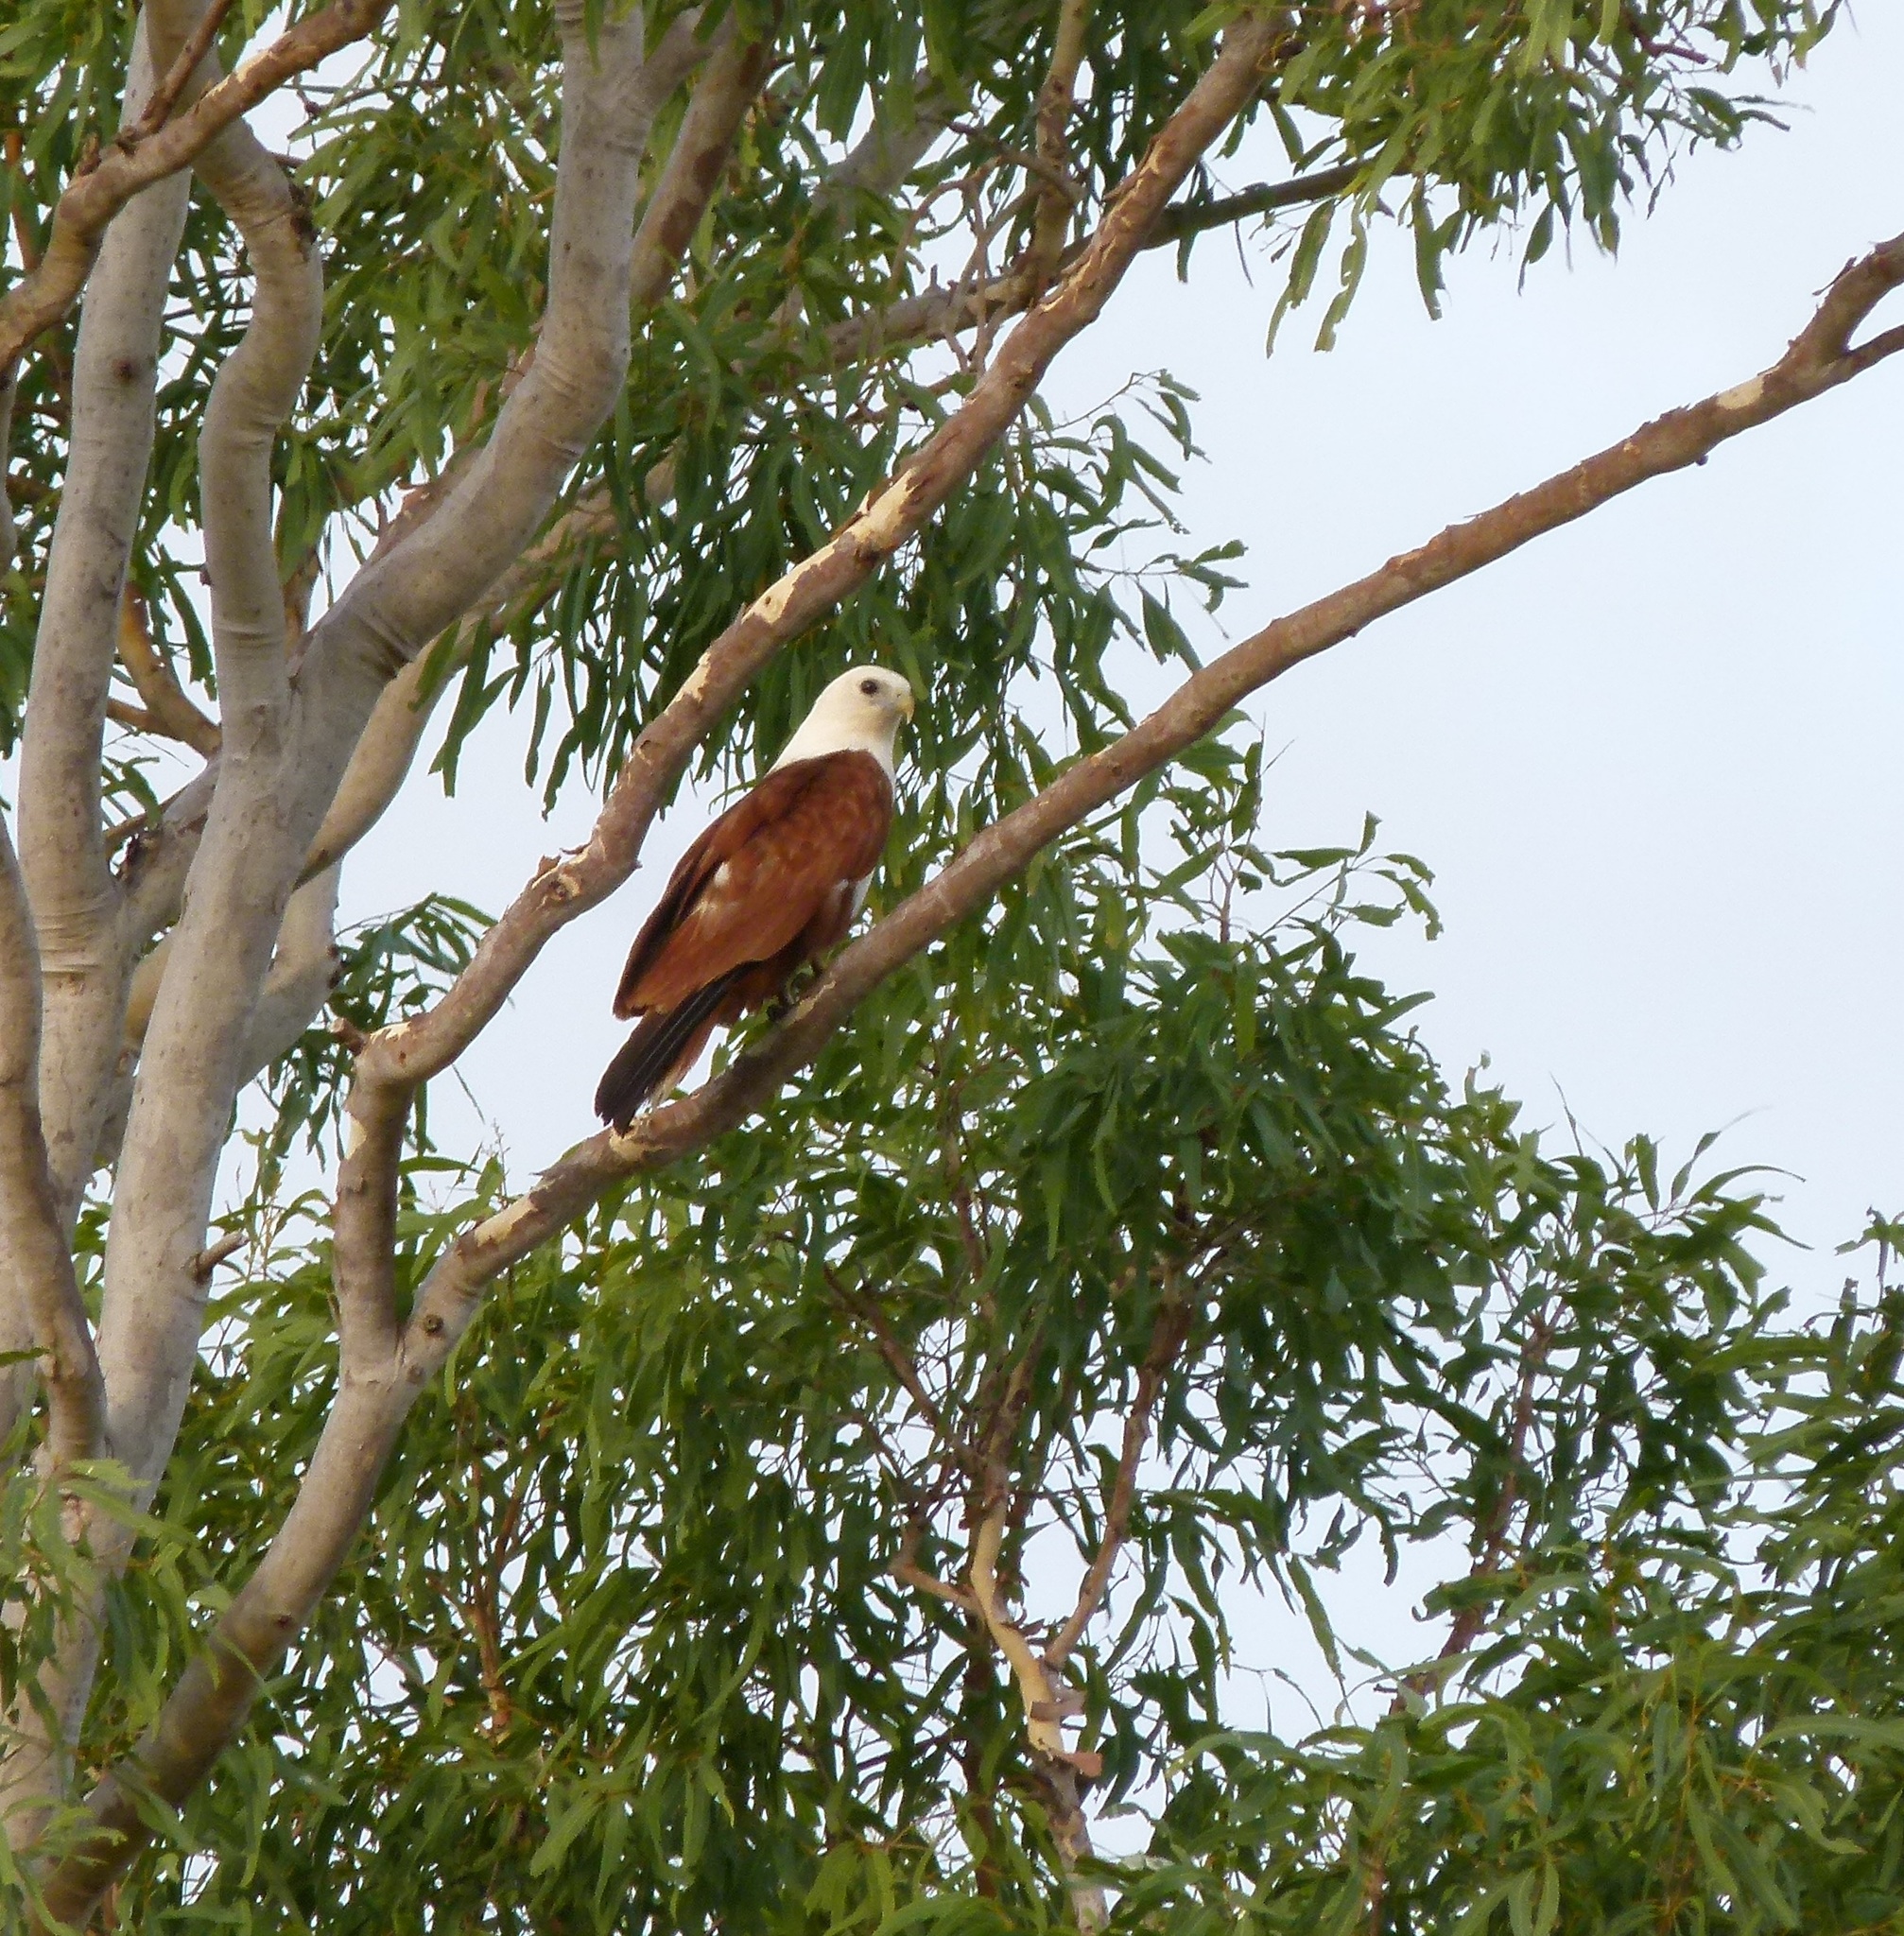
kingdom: Animalia
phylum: Chordata
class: Aves
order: Accipitriformes
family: Accipitridae
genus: Haliastur
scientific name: Haliastur indus
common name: Brahminy kite
